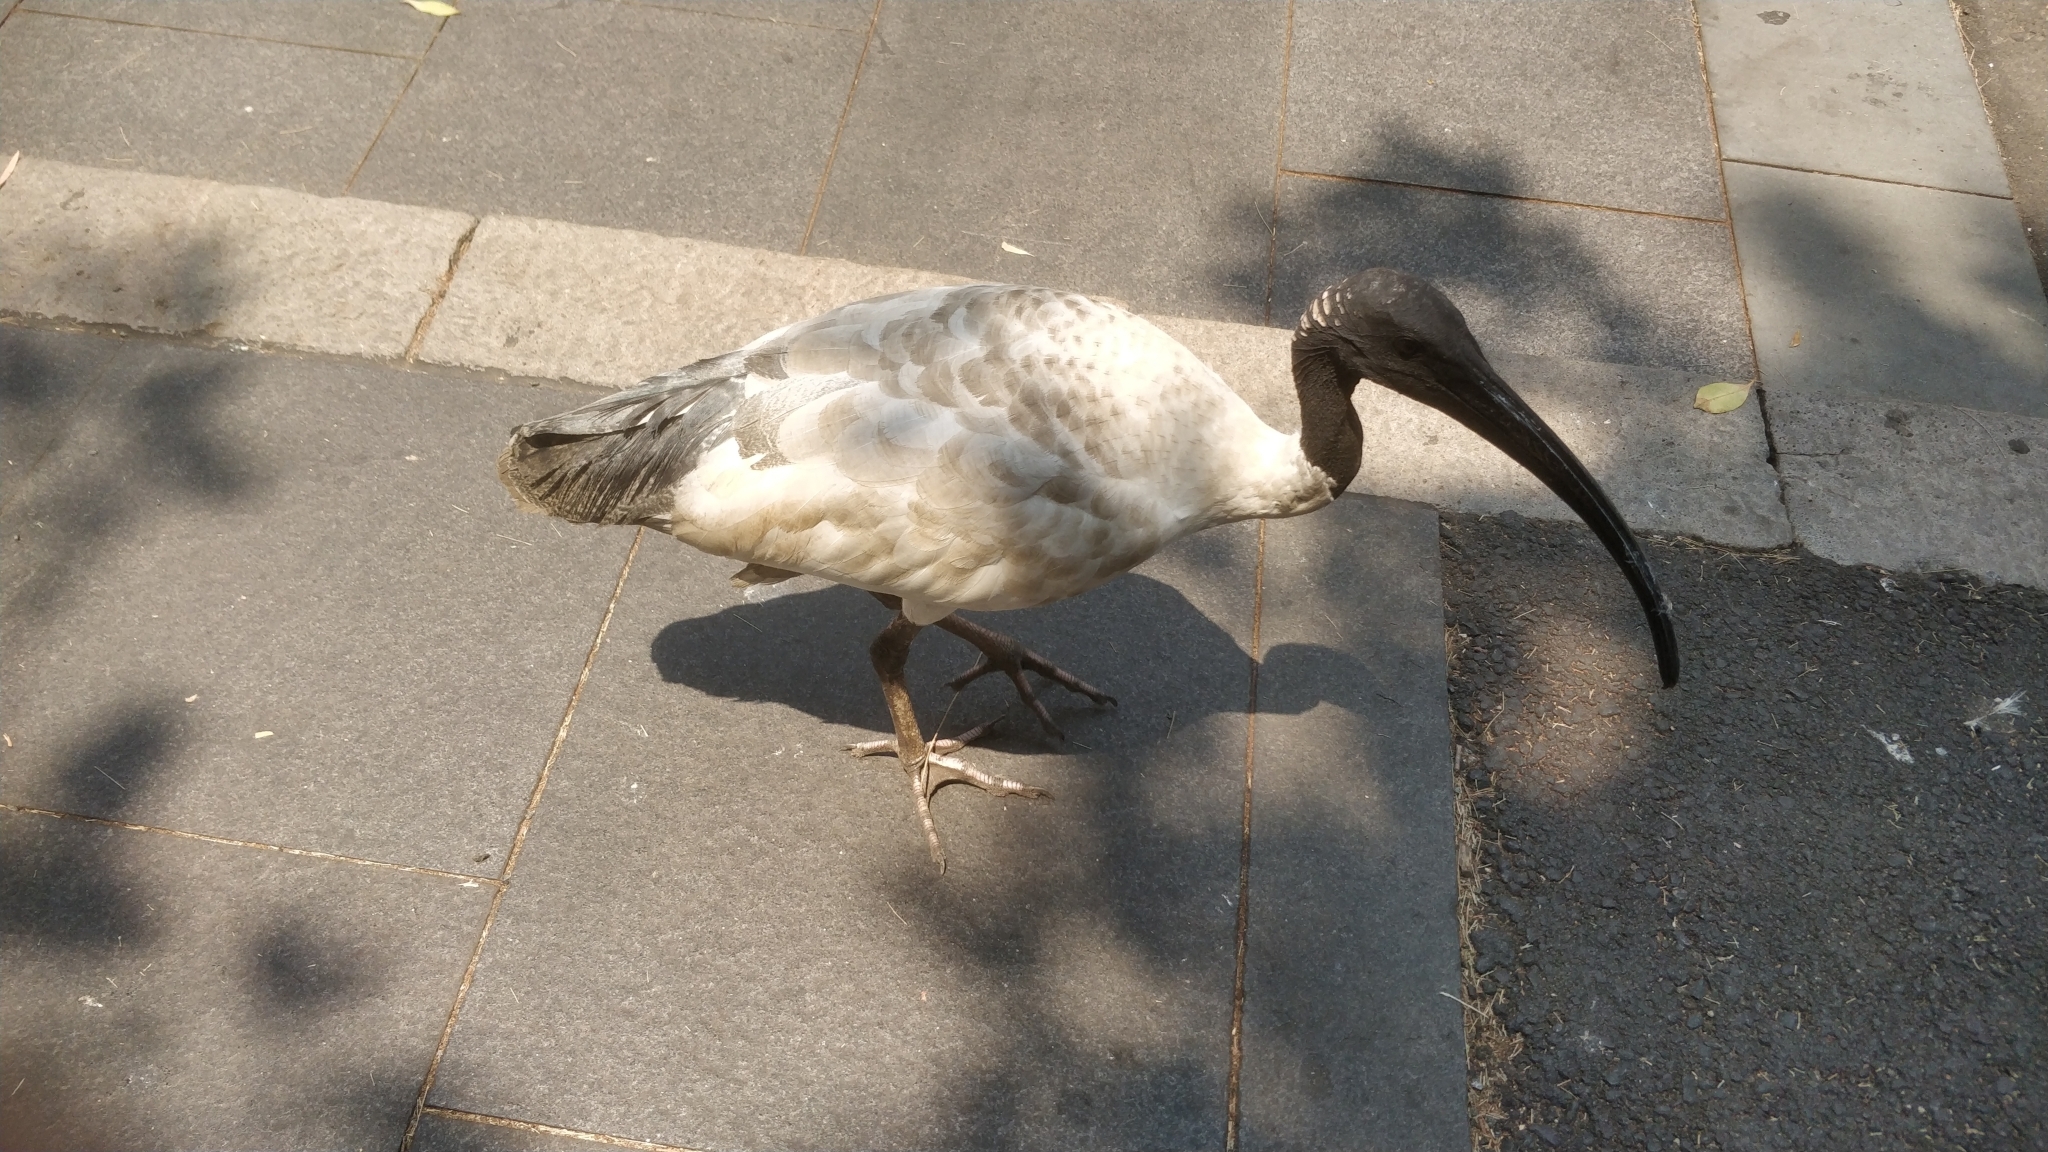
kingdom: Animalia
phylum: Chordata
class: Aves
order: Pelecaniformes
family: Threskiornithidae
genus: Threskiornis
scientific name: Threskiornis molucca
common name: Australian white ibis
